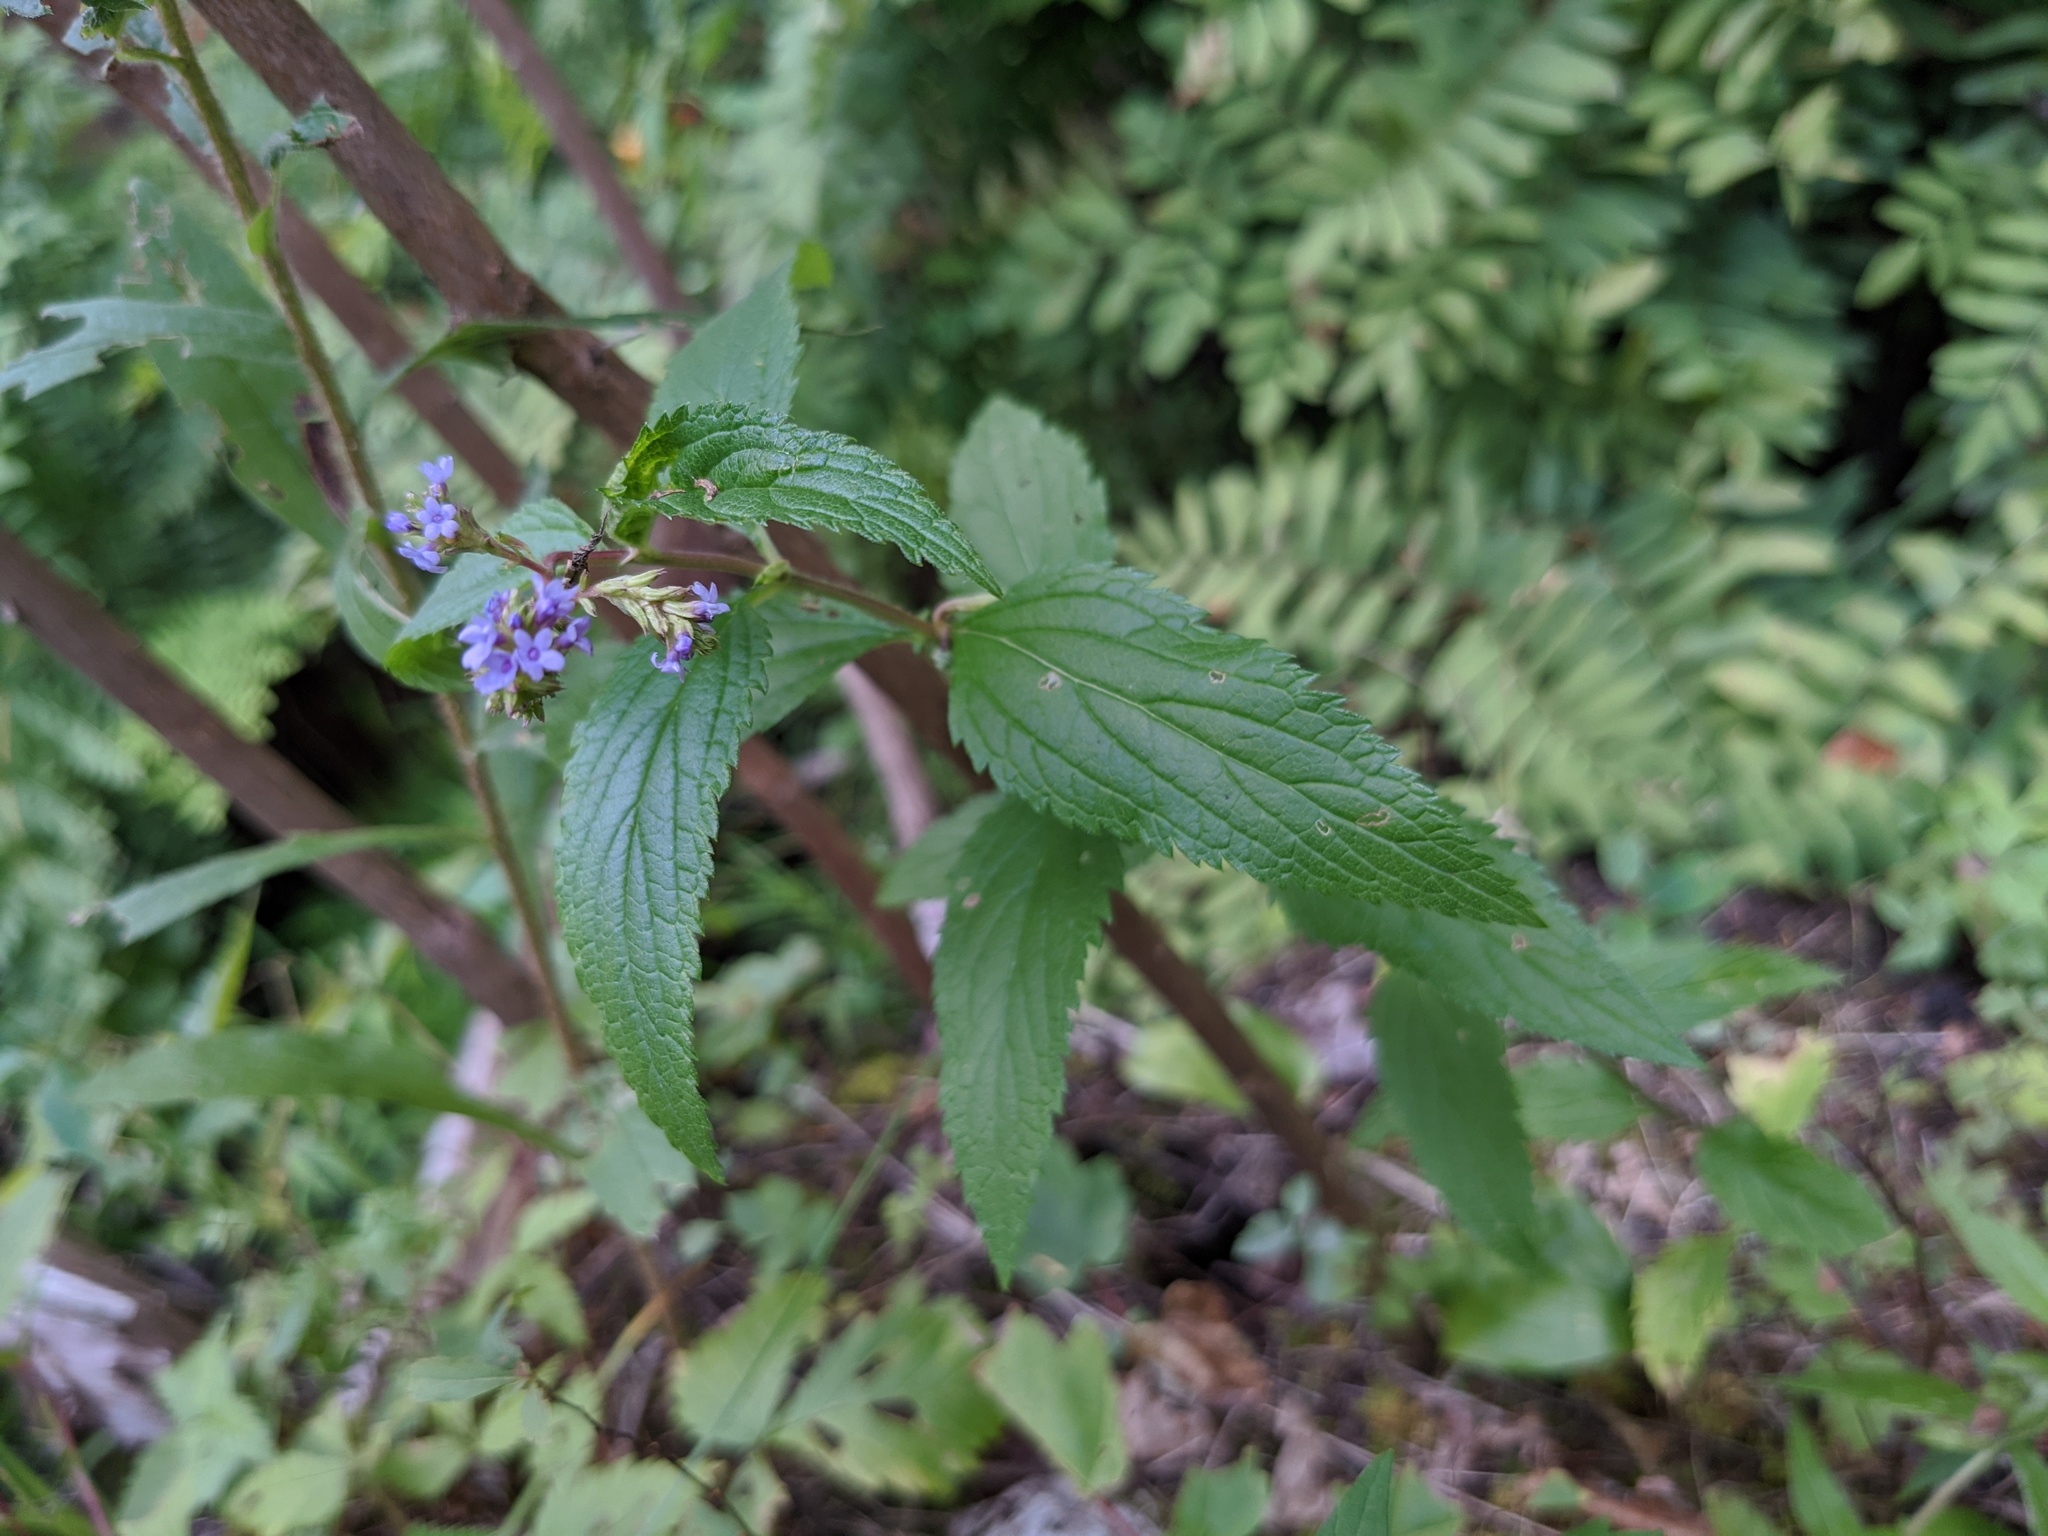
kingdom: Plantae
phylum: Tracheophyta
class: Magnoliopsida
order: Lamiales
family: Verbenaceae
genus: Verbena
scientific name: Verbena hastata
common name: American blue vervain
